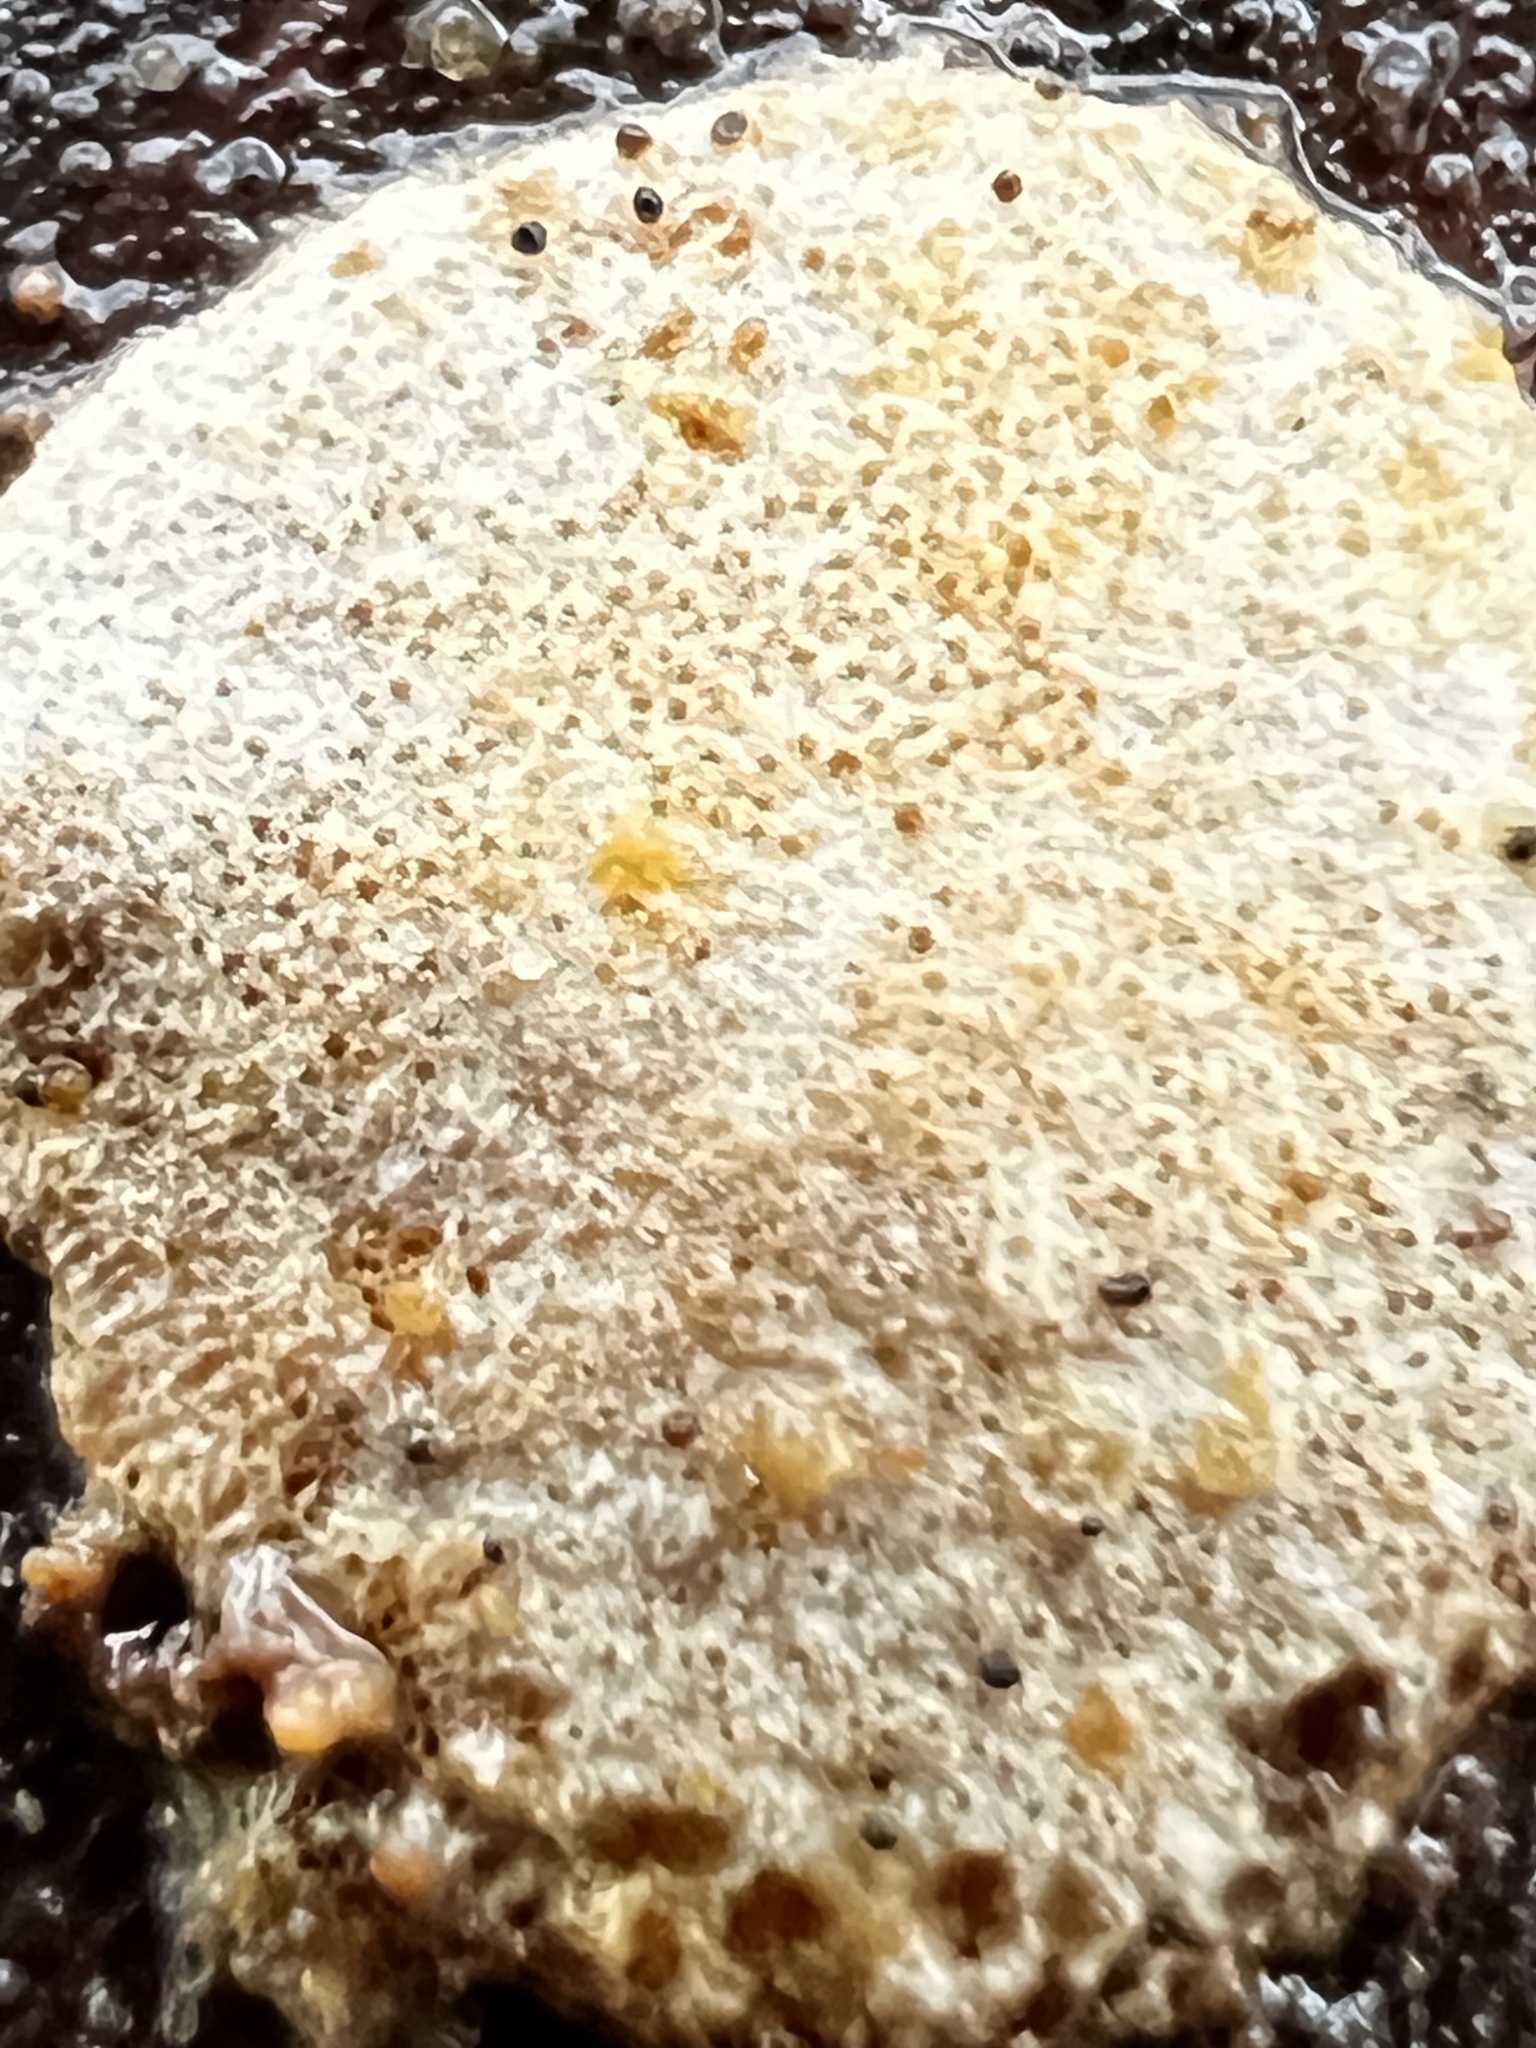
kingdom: Fungi
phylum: Ascomycota
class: Sordariomycetes
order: Hypocreales
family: Hypocreaceae
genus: Trichoderma
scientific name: Trichoderma pulvinatum
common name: Ochre cushion
